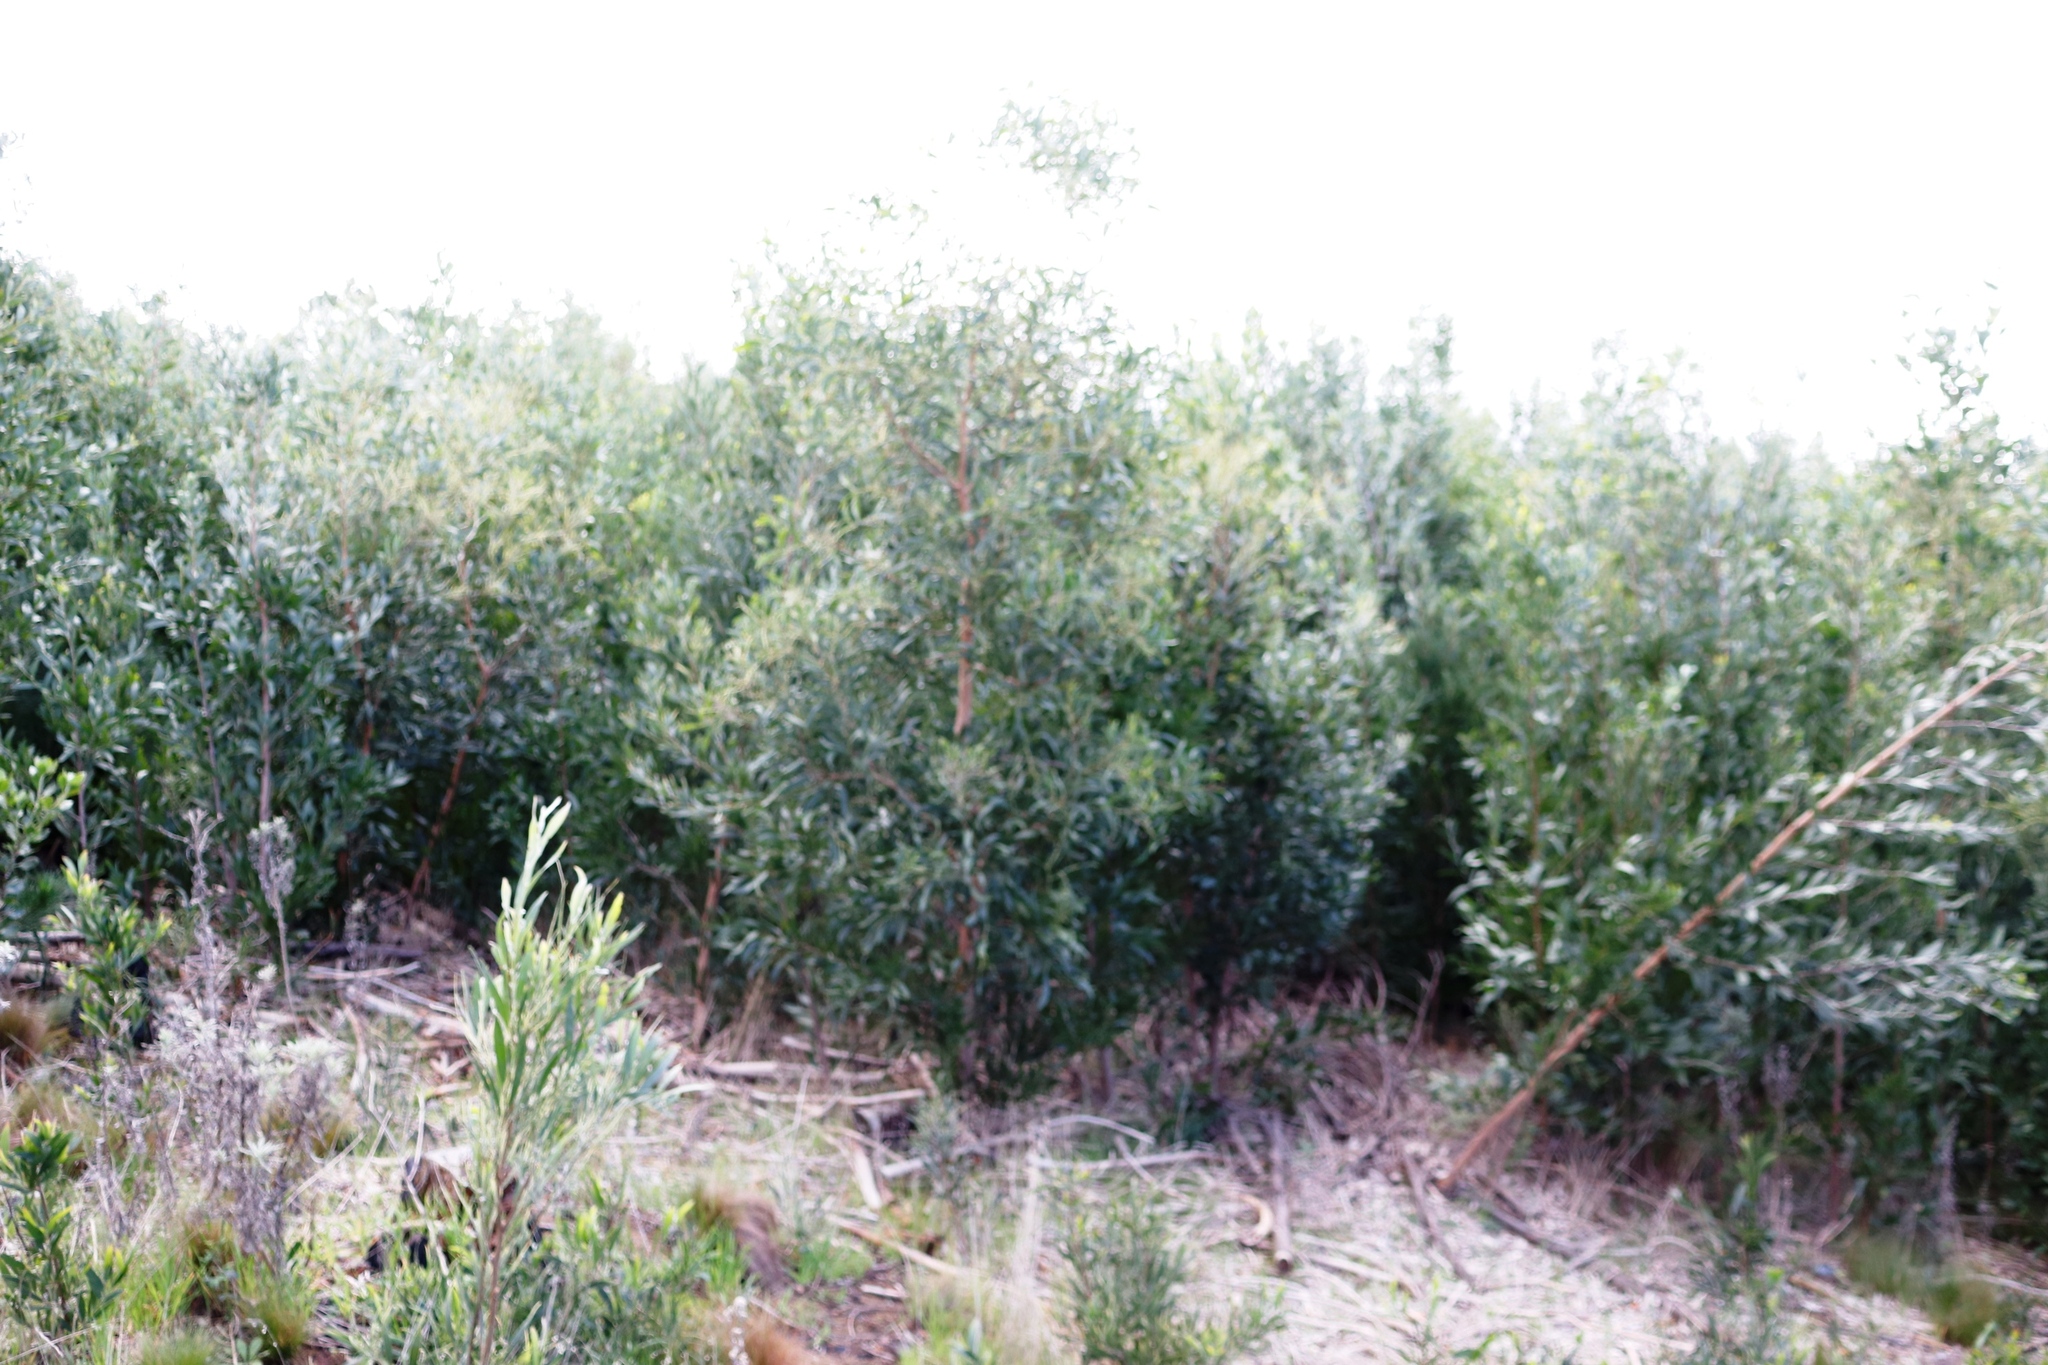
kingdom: Plantae
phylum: Tracheophyta
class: Magnoliopsida
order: Fabales
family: Fabaceae
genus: Acacia
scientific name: Acacia melanoxylon
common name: Blackwood
